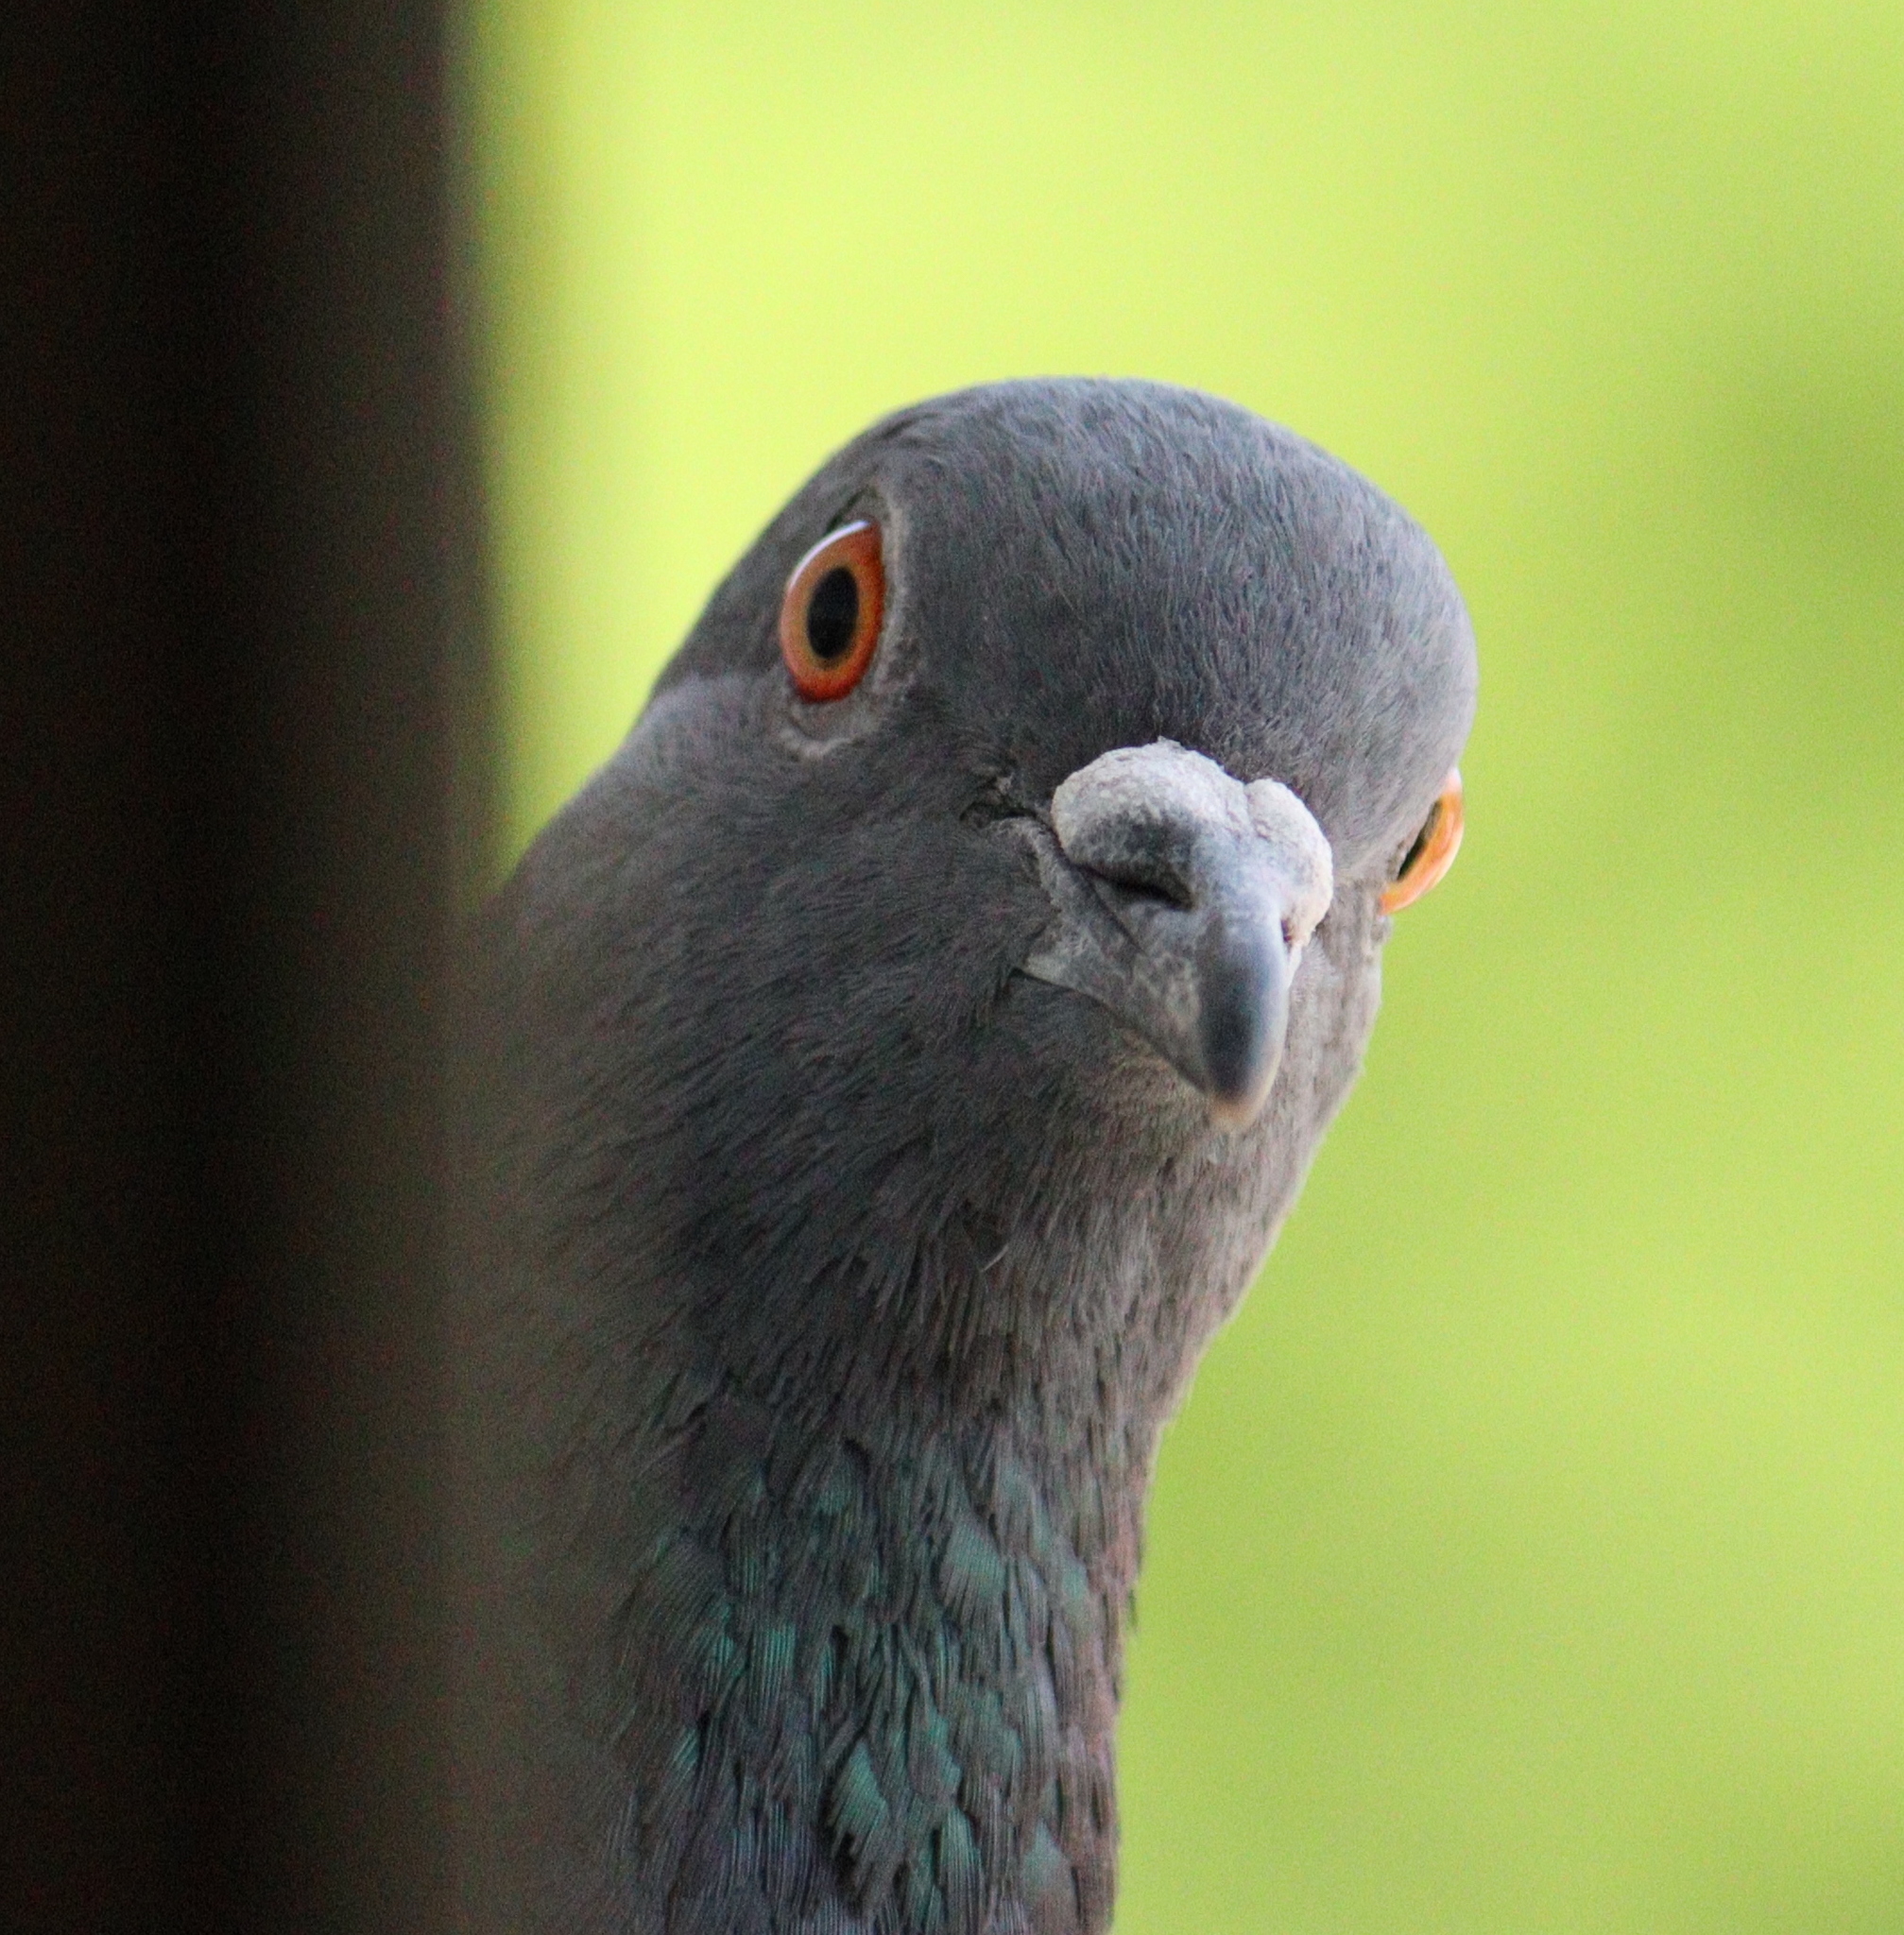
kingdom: Animalia
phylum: Chordata
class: Aves
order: Columbiformes
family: Columbidae
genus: Columba
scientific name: Columba livia
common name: Rock pigeon
